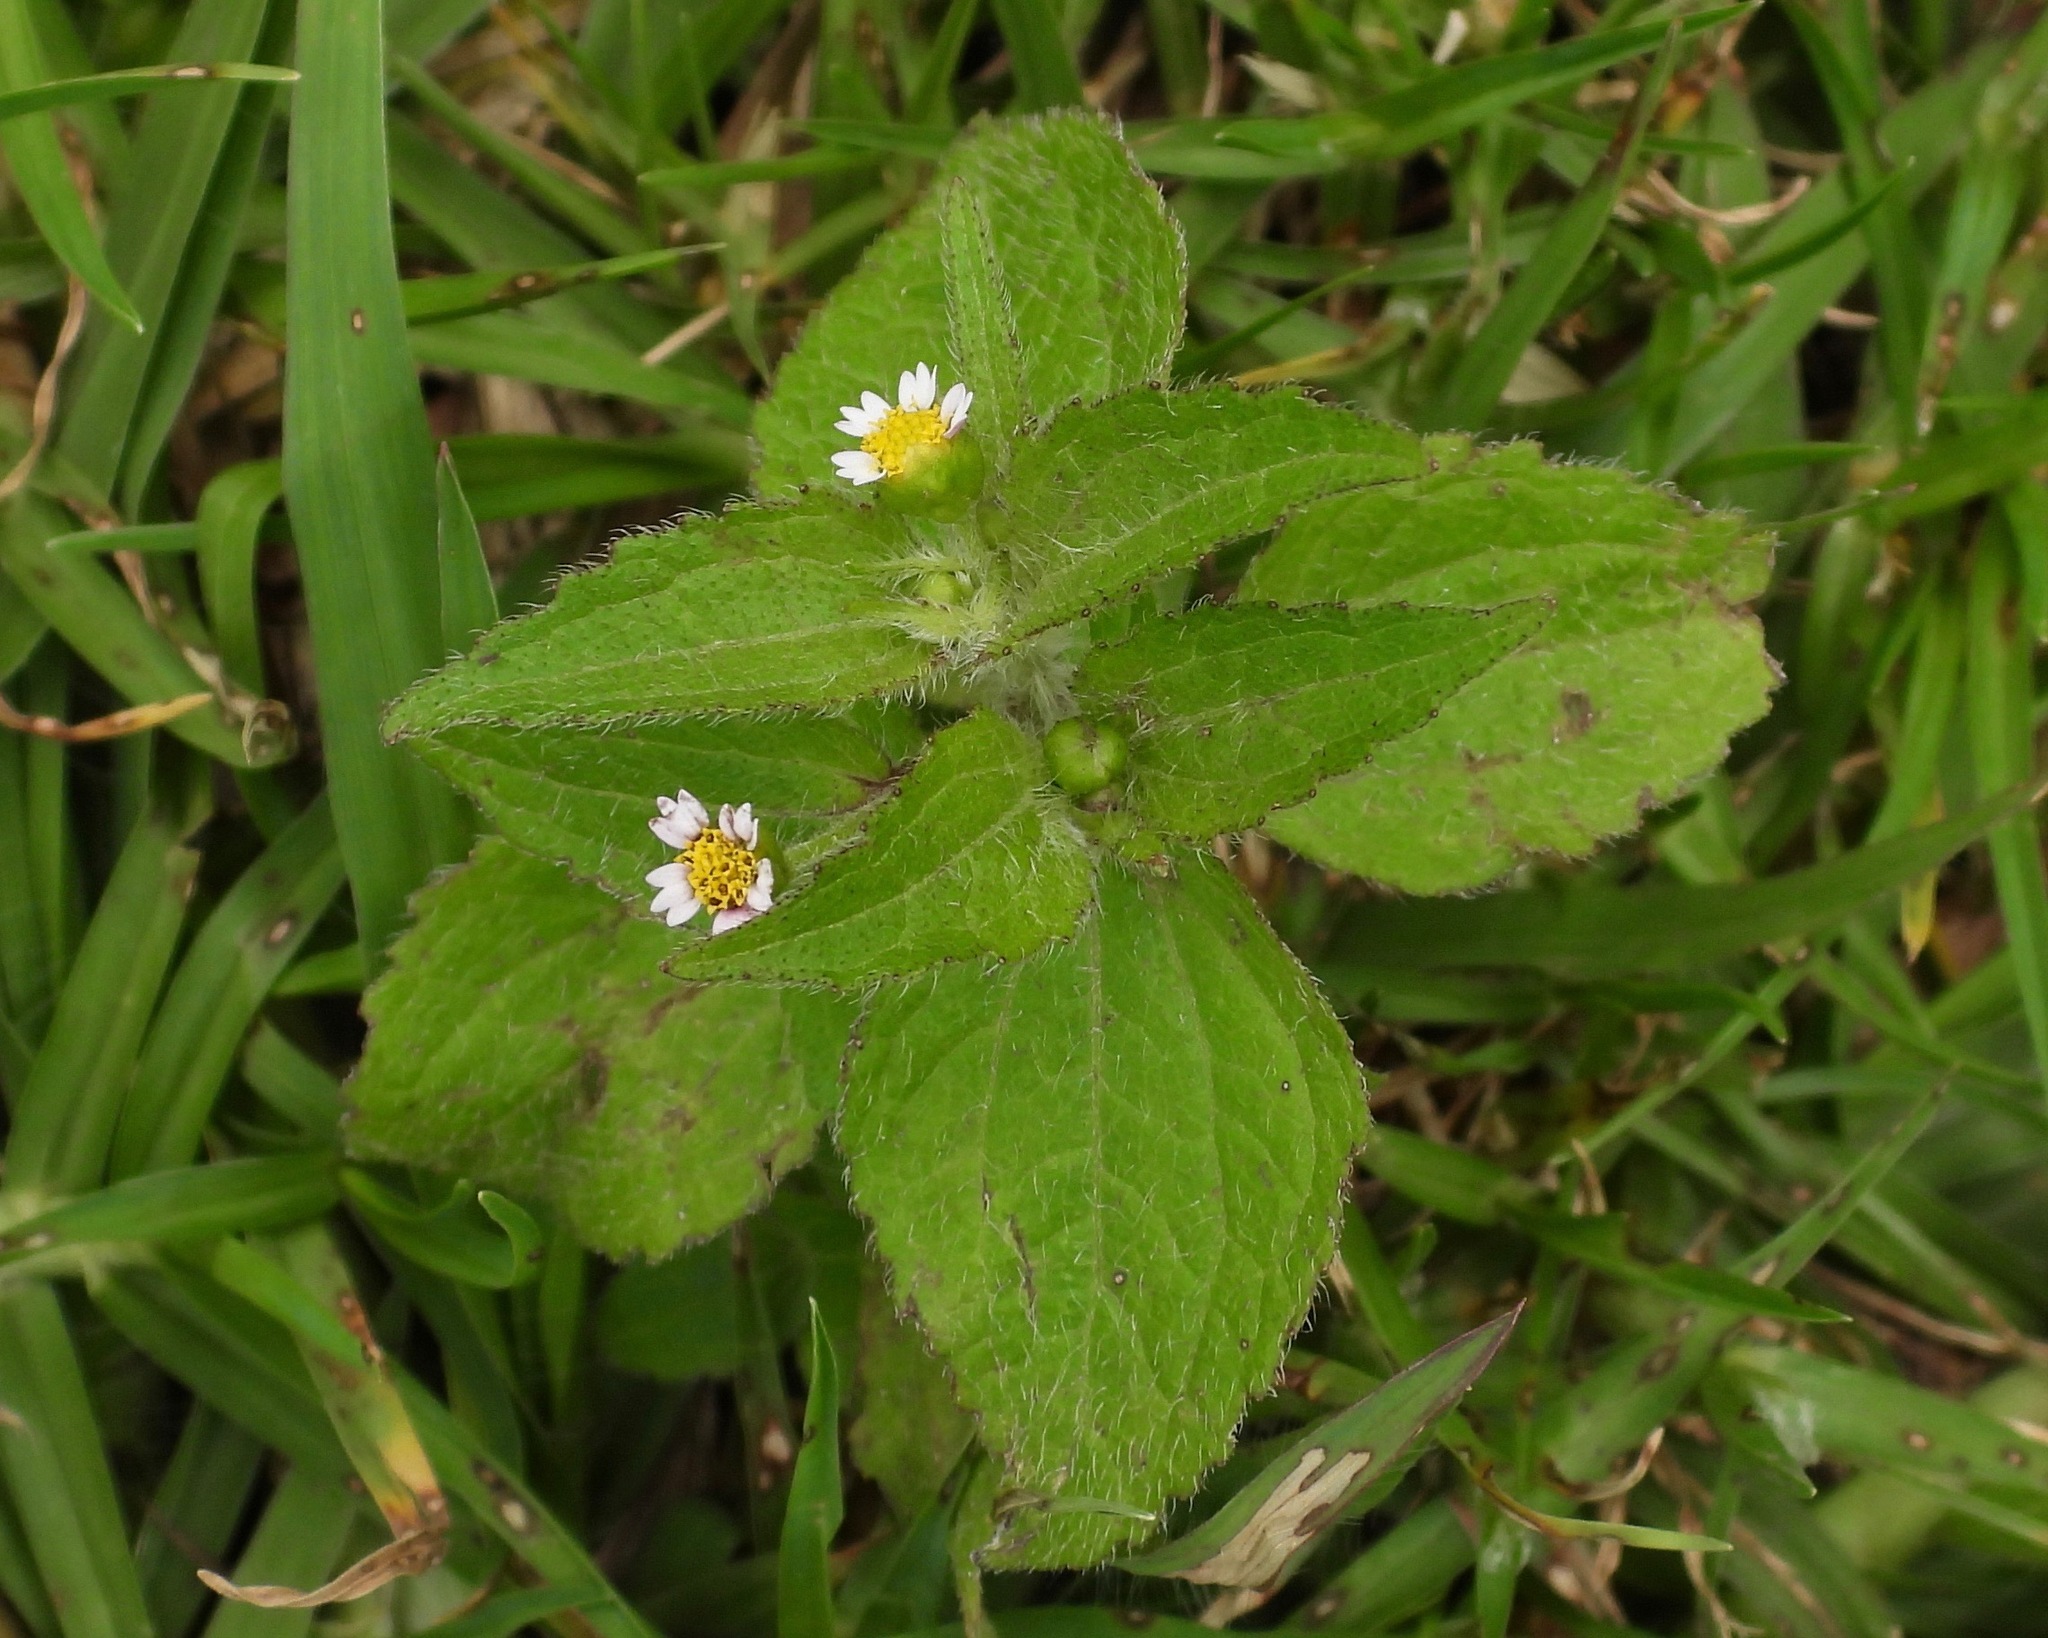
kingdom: Plantae
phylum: Tracheophyta
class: Magnoliopsida
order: Asterales
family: Asteraceae
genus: Galinsoga
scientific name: Galinsoga quadriradiata
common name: Shaggy soldier
